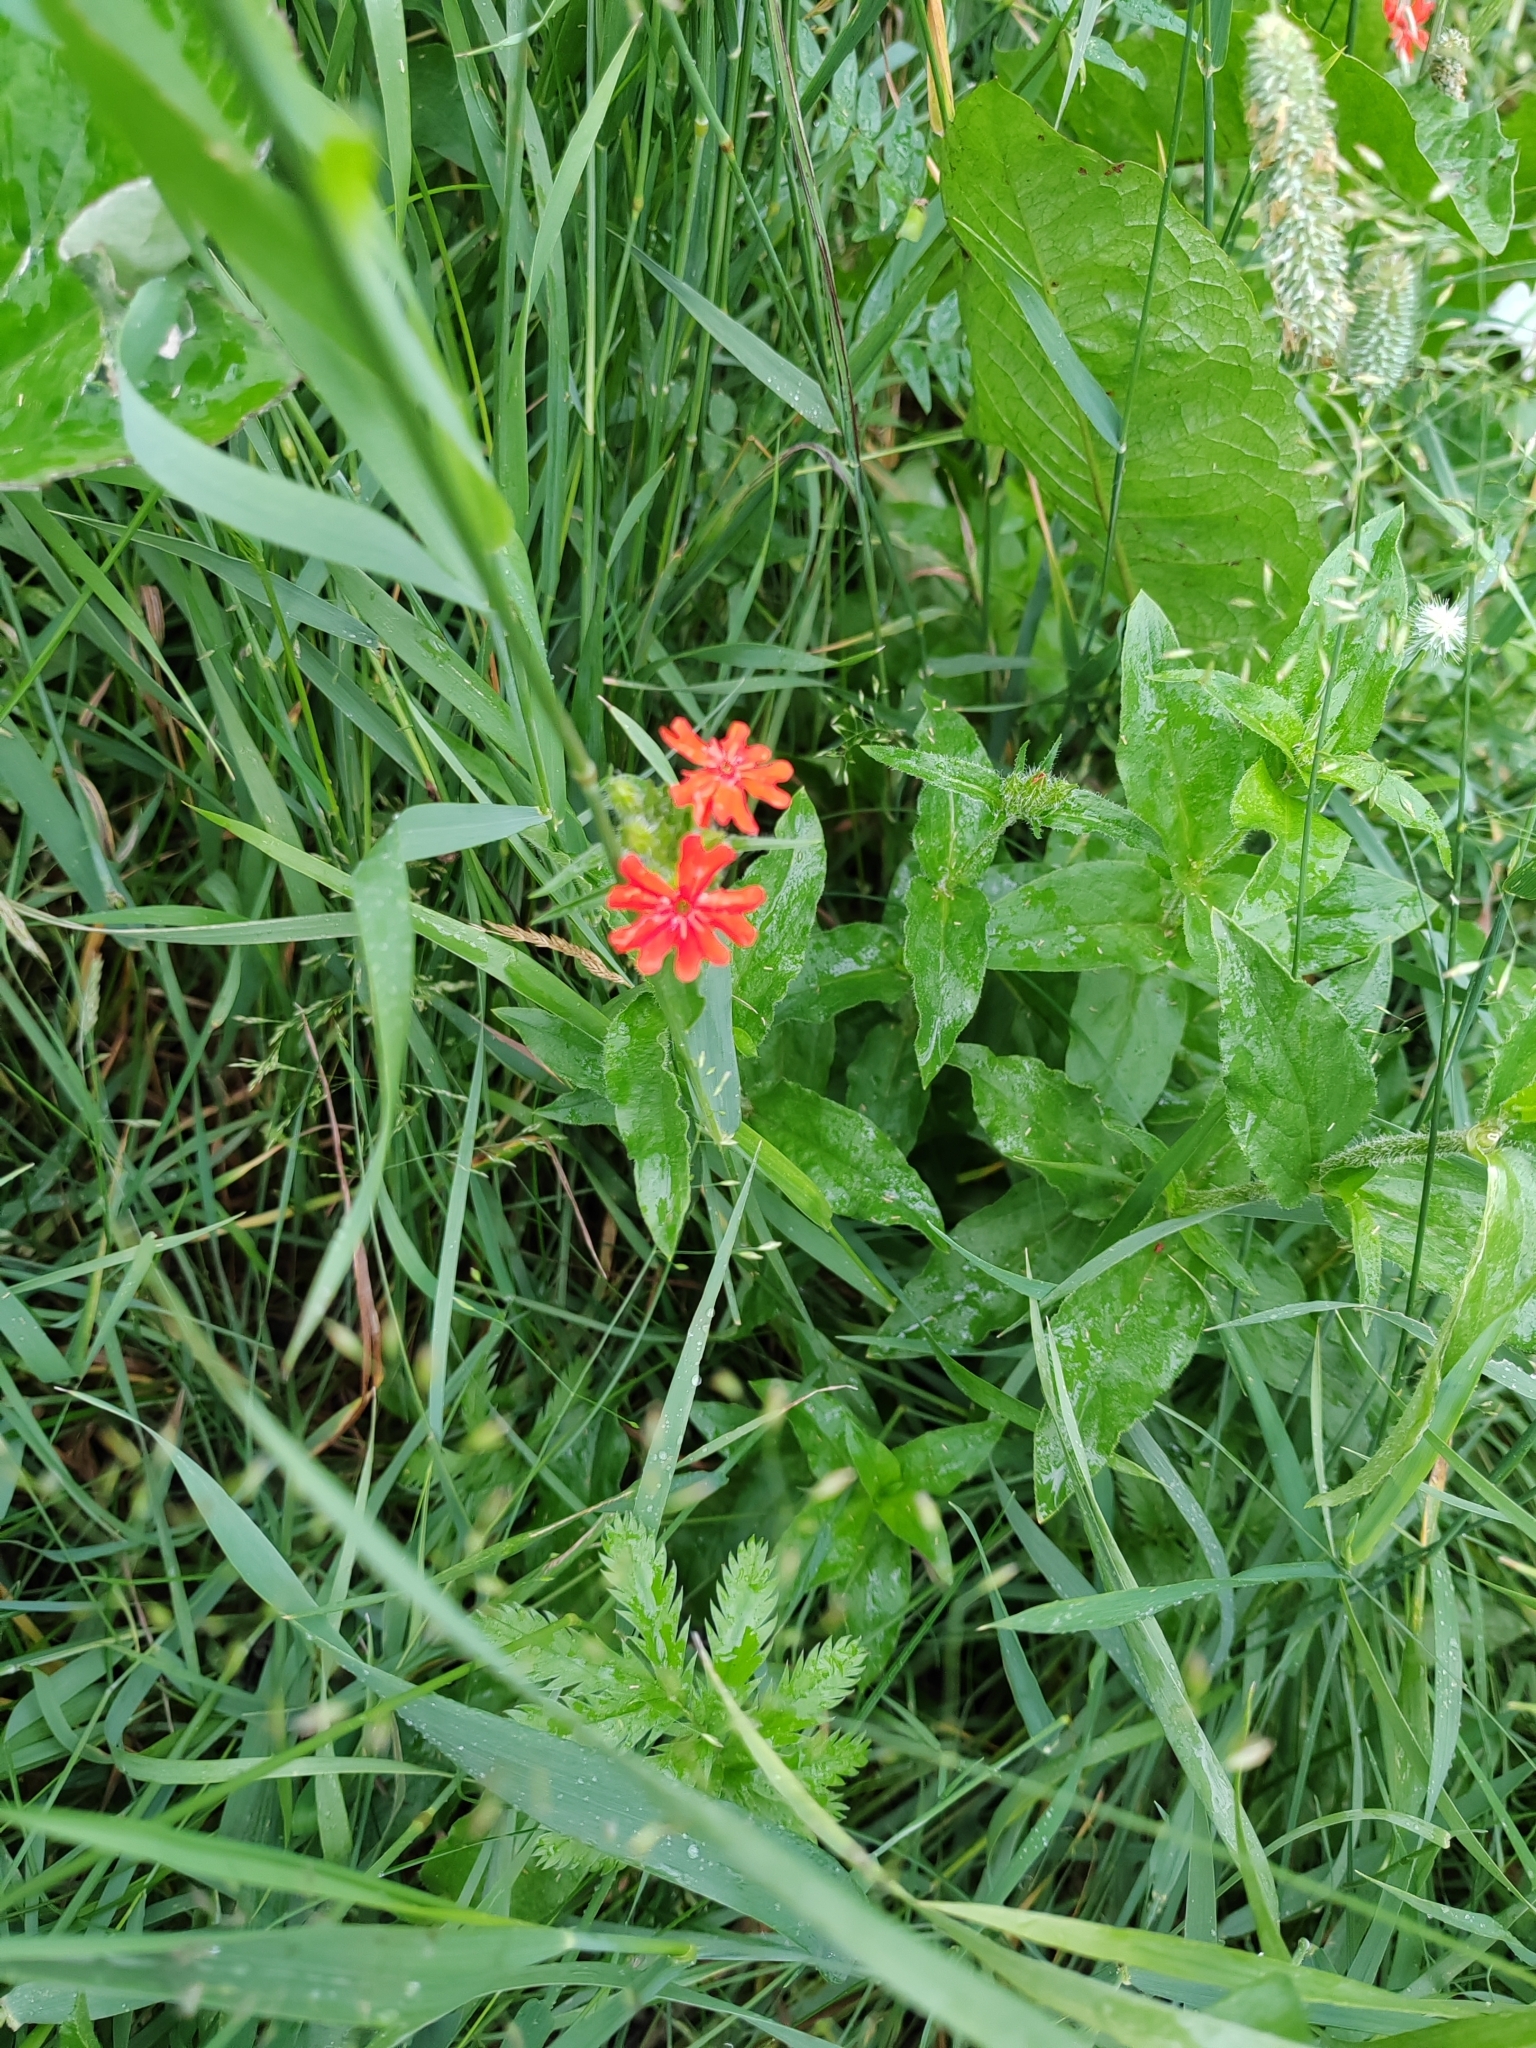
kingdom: Plantae
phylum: Tracheophyta
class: Magnoliopsida
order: Caryophyllales
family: Caryophyllaceae
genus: Silene
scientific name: Silene chalcedonica
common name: Maltese-cross
